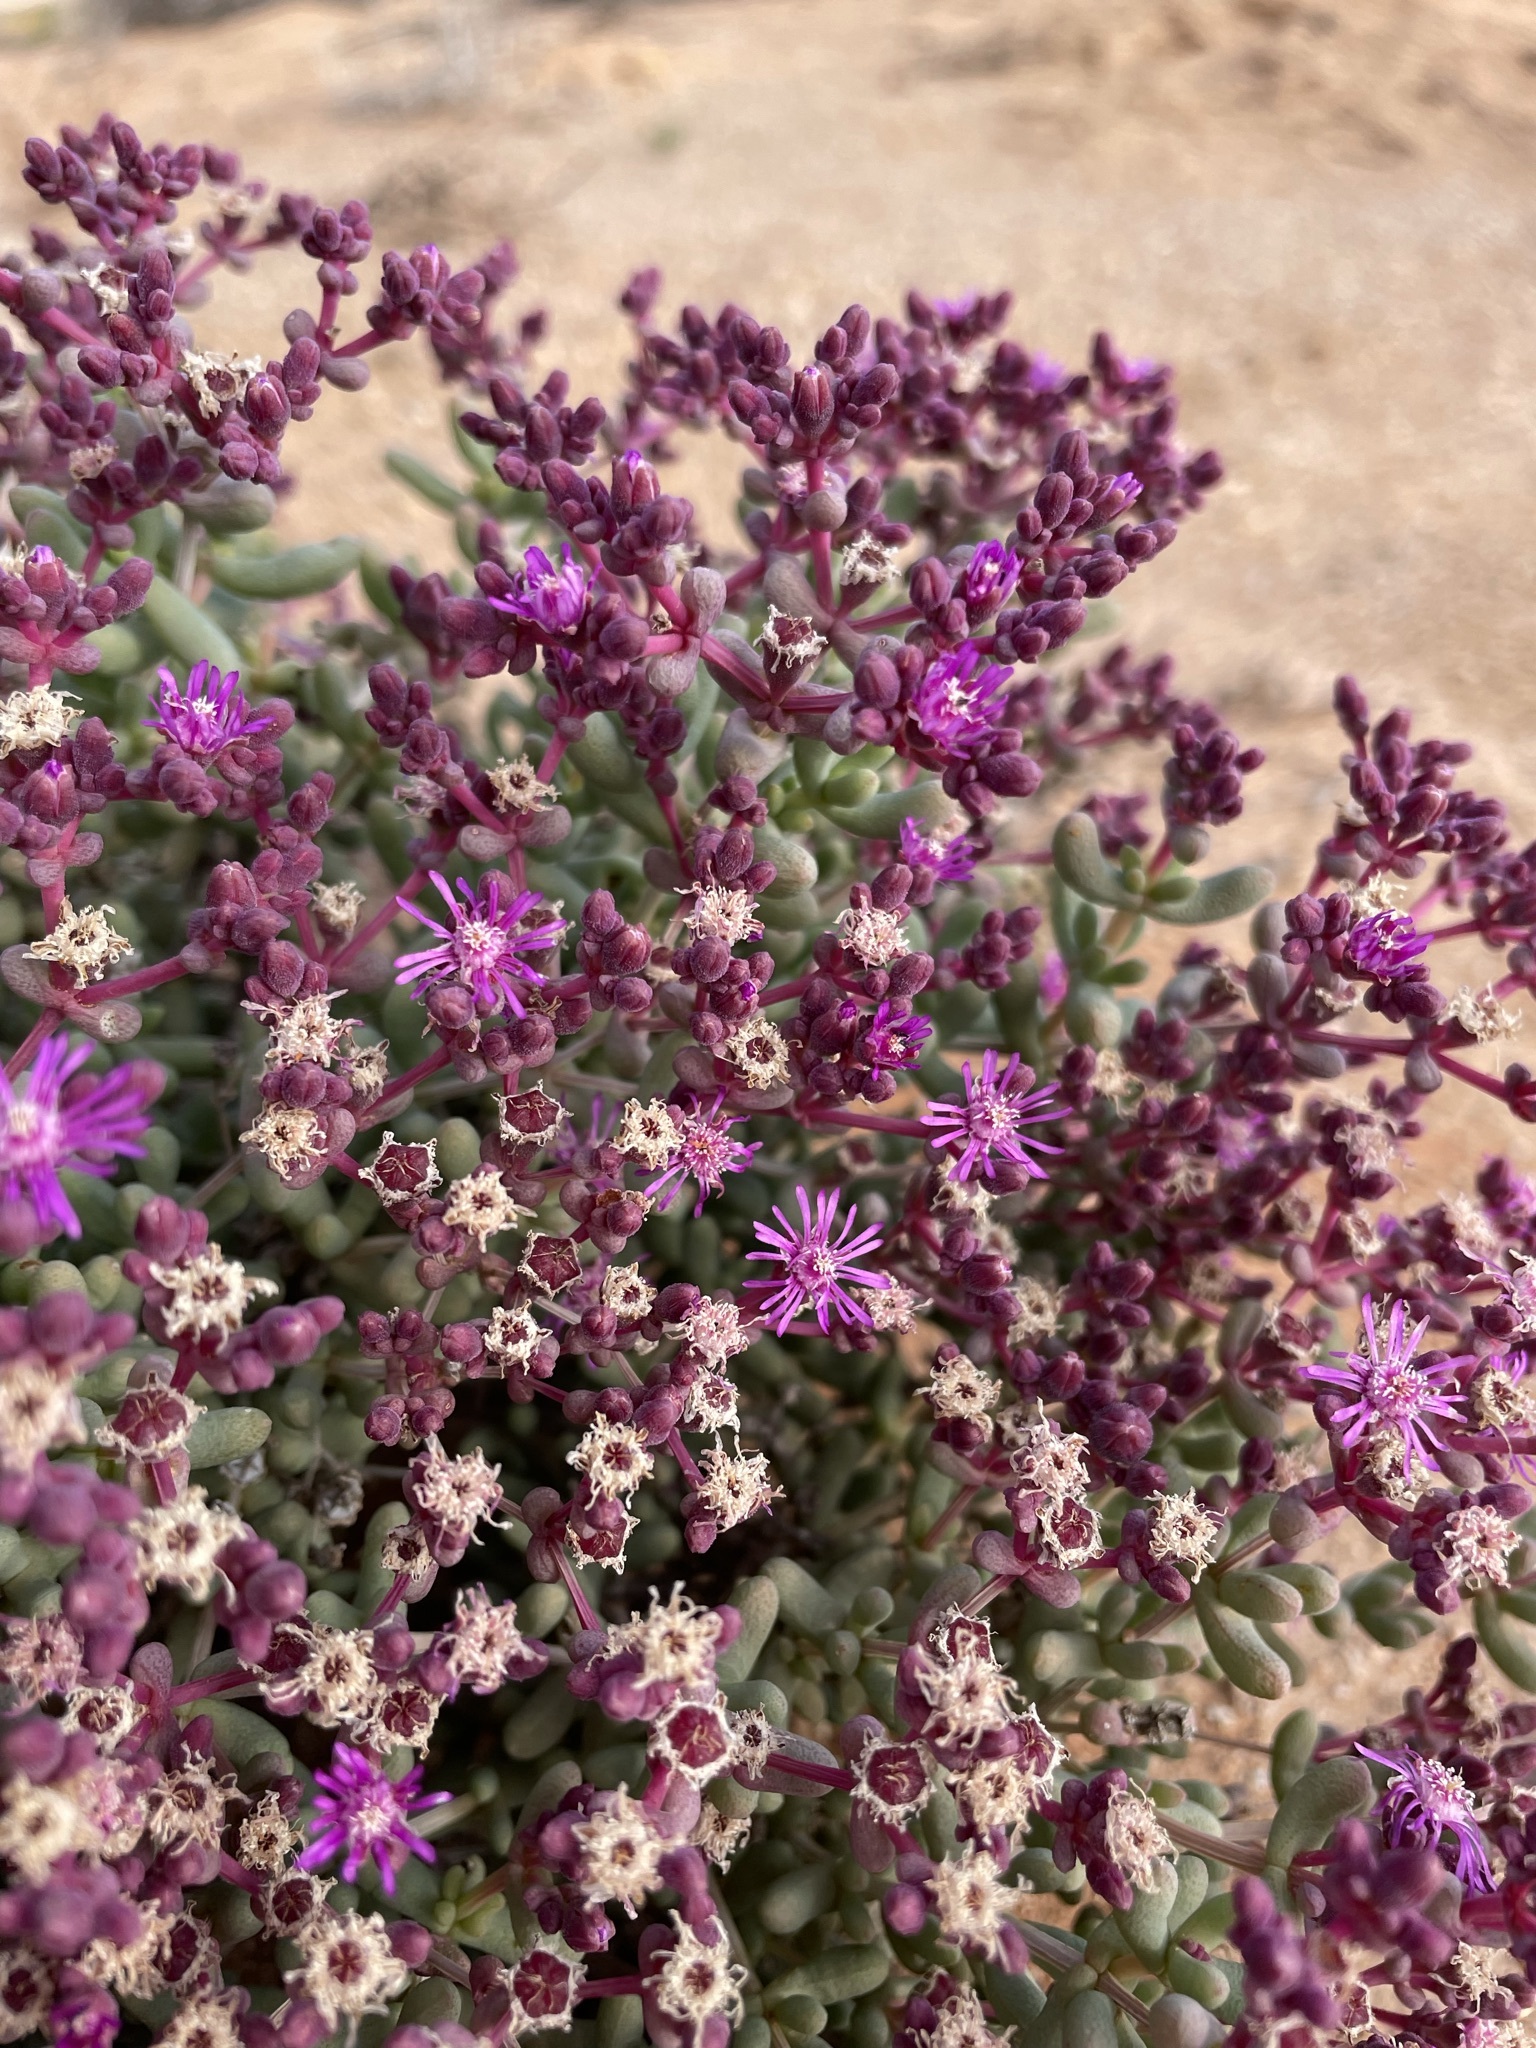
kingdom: Plantae
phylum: Tracheophyta
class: Magnoliopsida
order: Caryophyllales
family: Aizoaceae
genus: Eberlanzia
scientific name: Eberlanzia dichotoma
